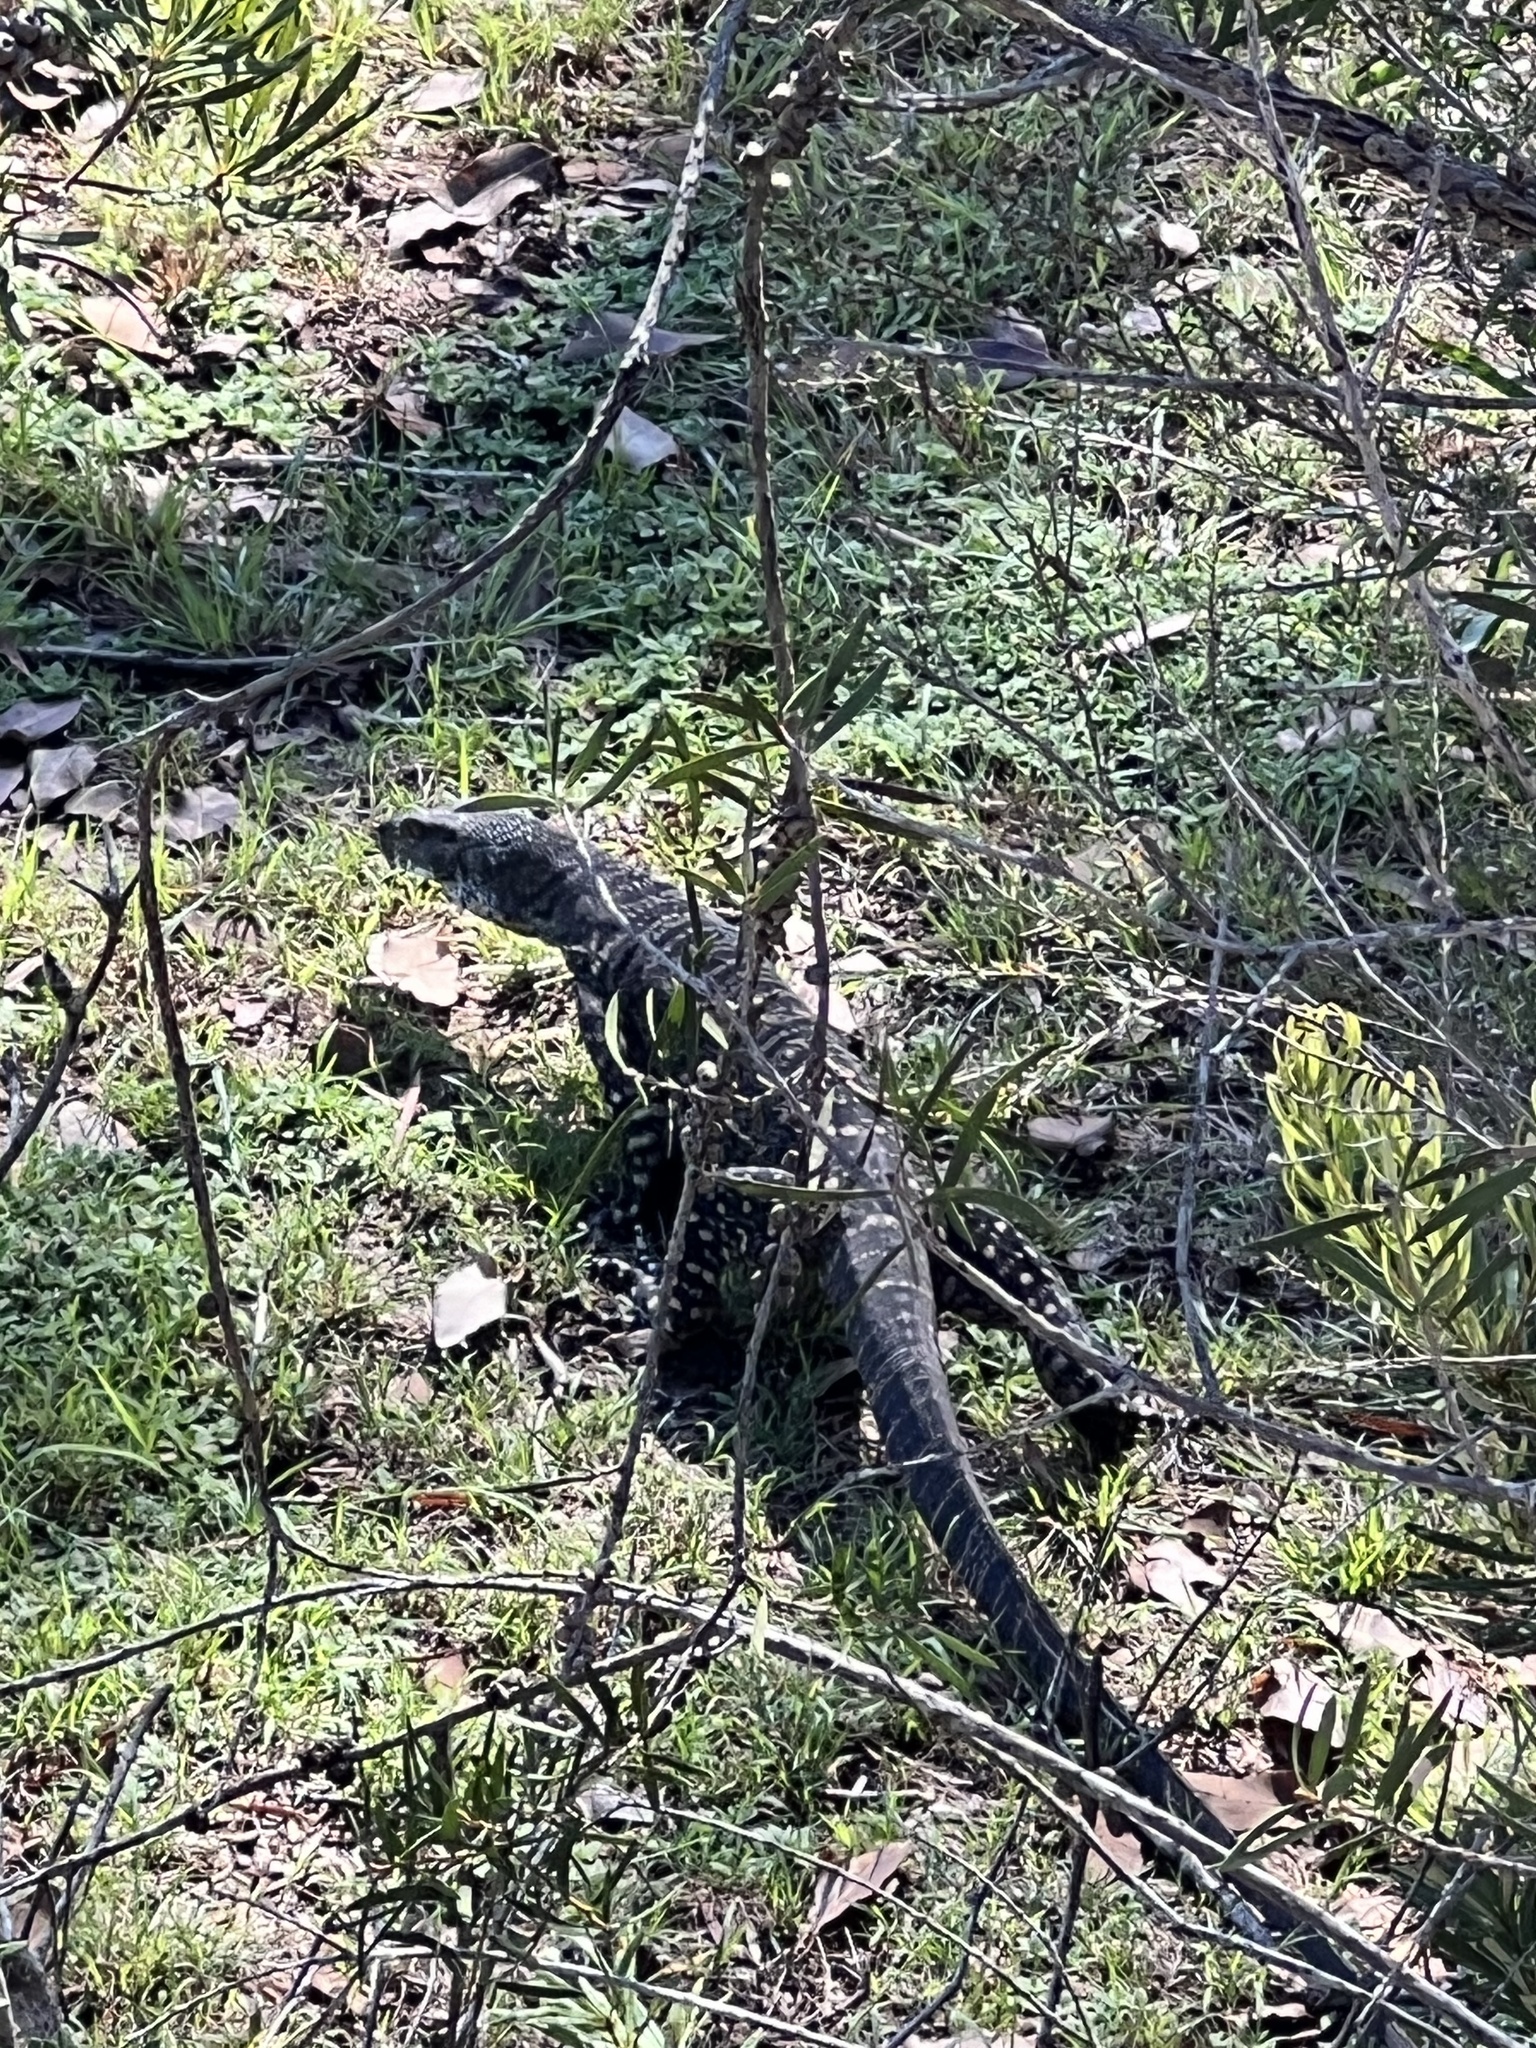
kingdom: Animalia
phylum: Chordata
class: Squamata
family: Varanidae
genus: Varanus
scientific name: Varanus varius
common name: Lace monitor
